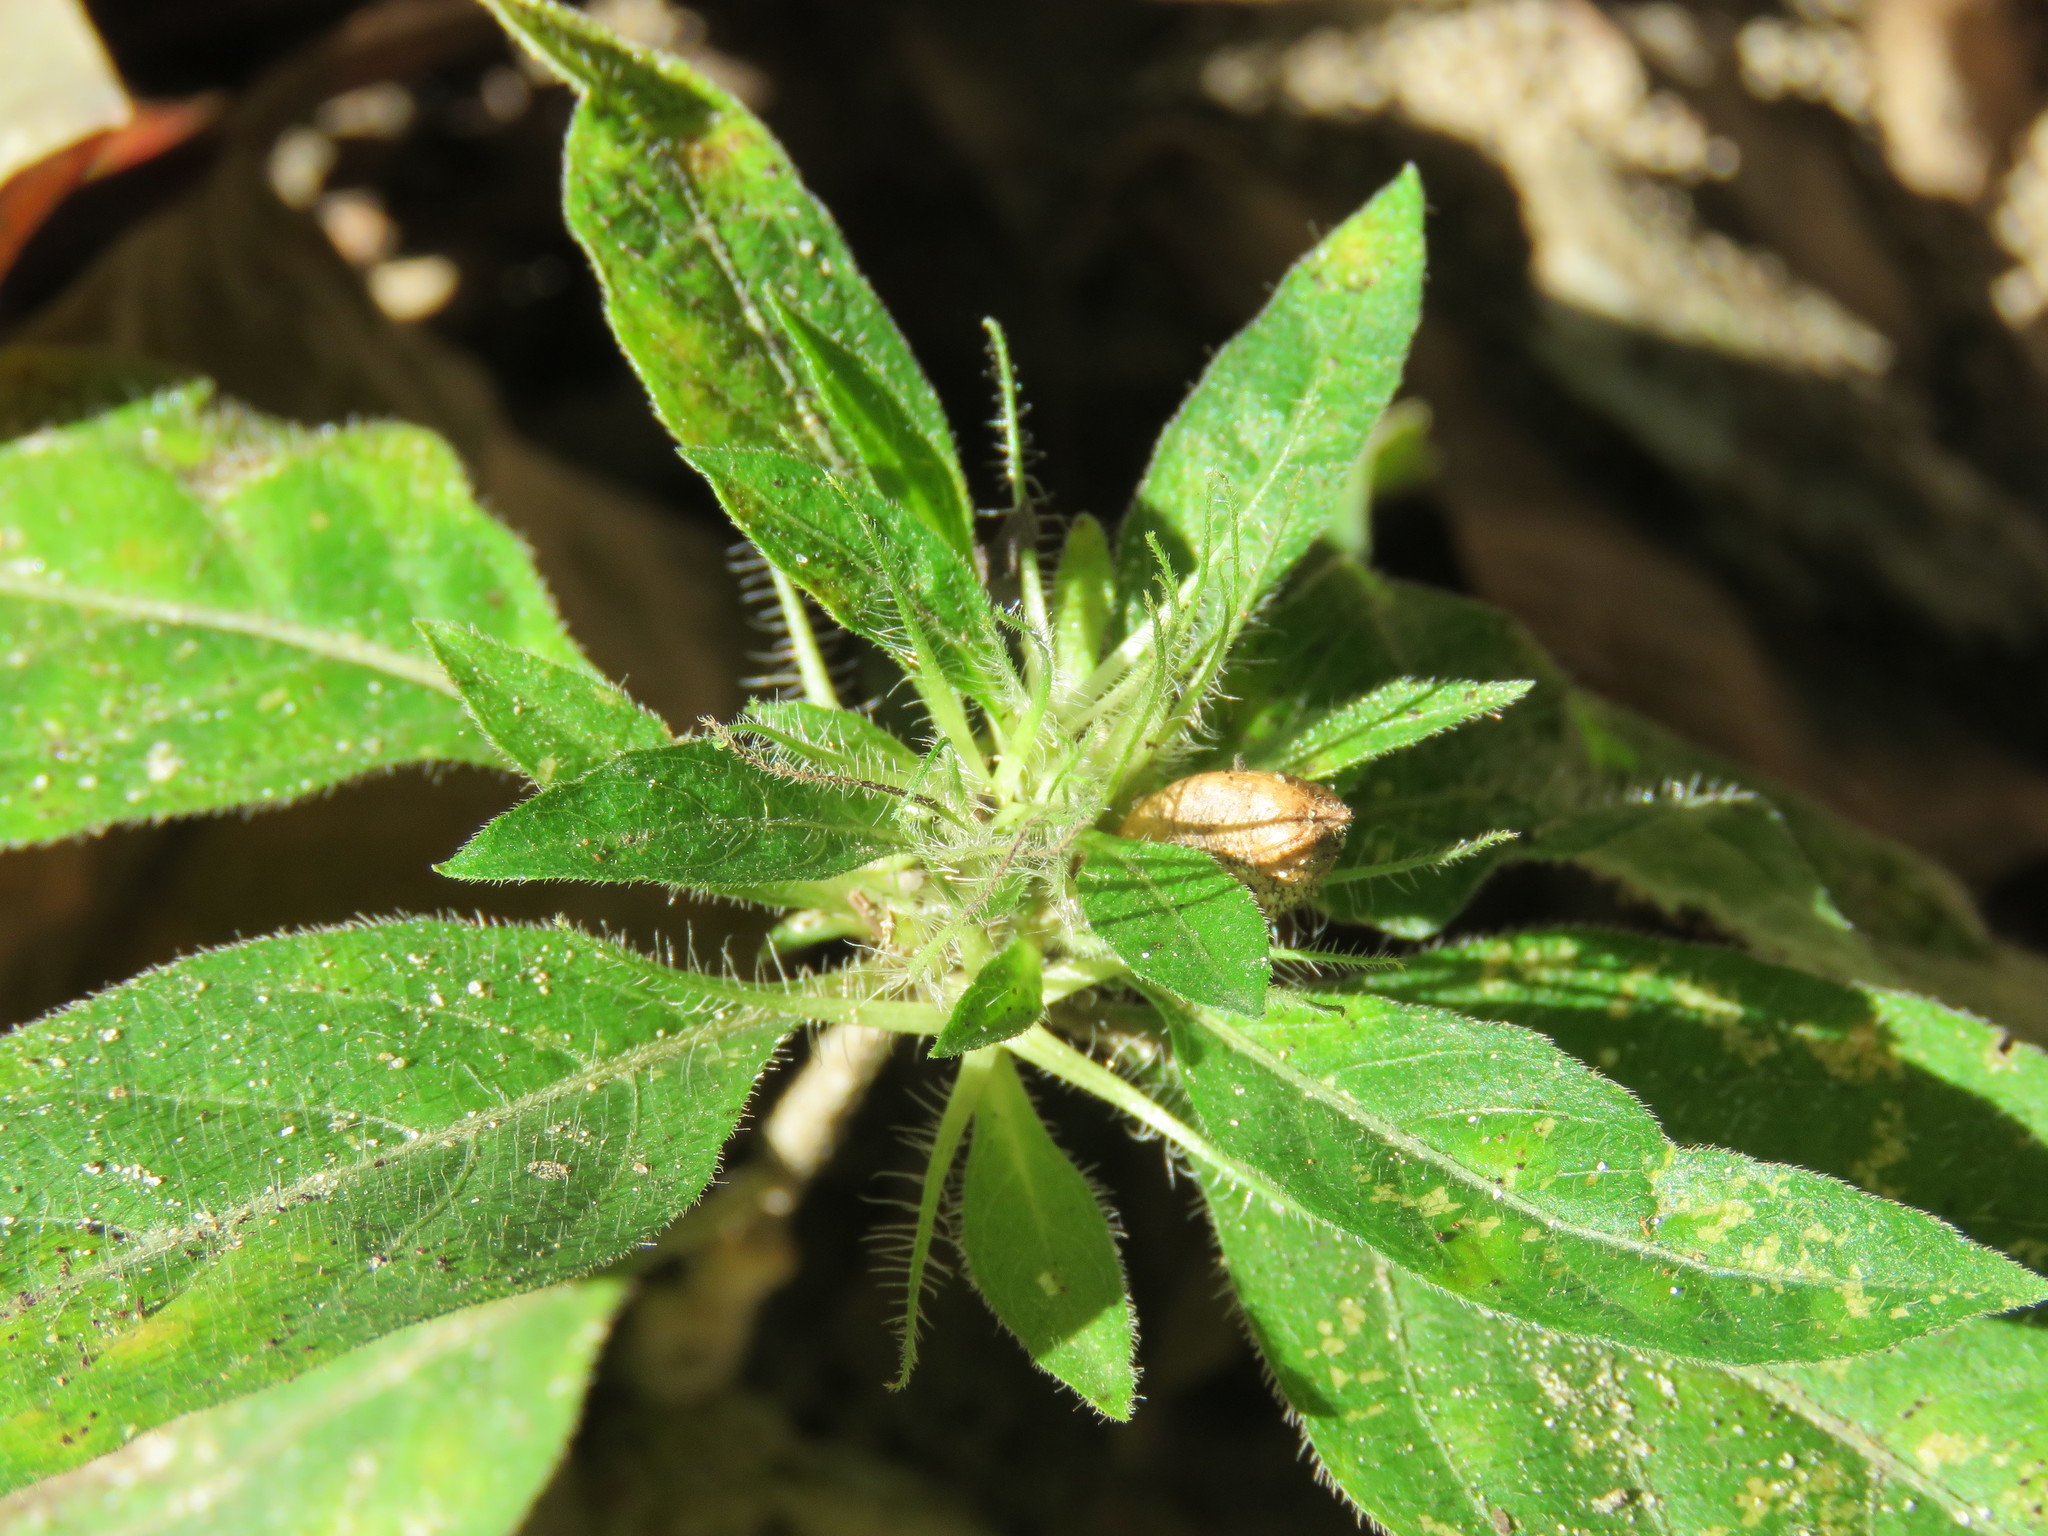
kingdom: Plantae
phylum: Tracheophyta
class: Magnoliopsida
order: Lamiales
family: Acanthaceae
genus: Ruellia
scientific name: Ruellia caroliniensis
